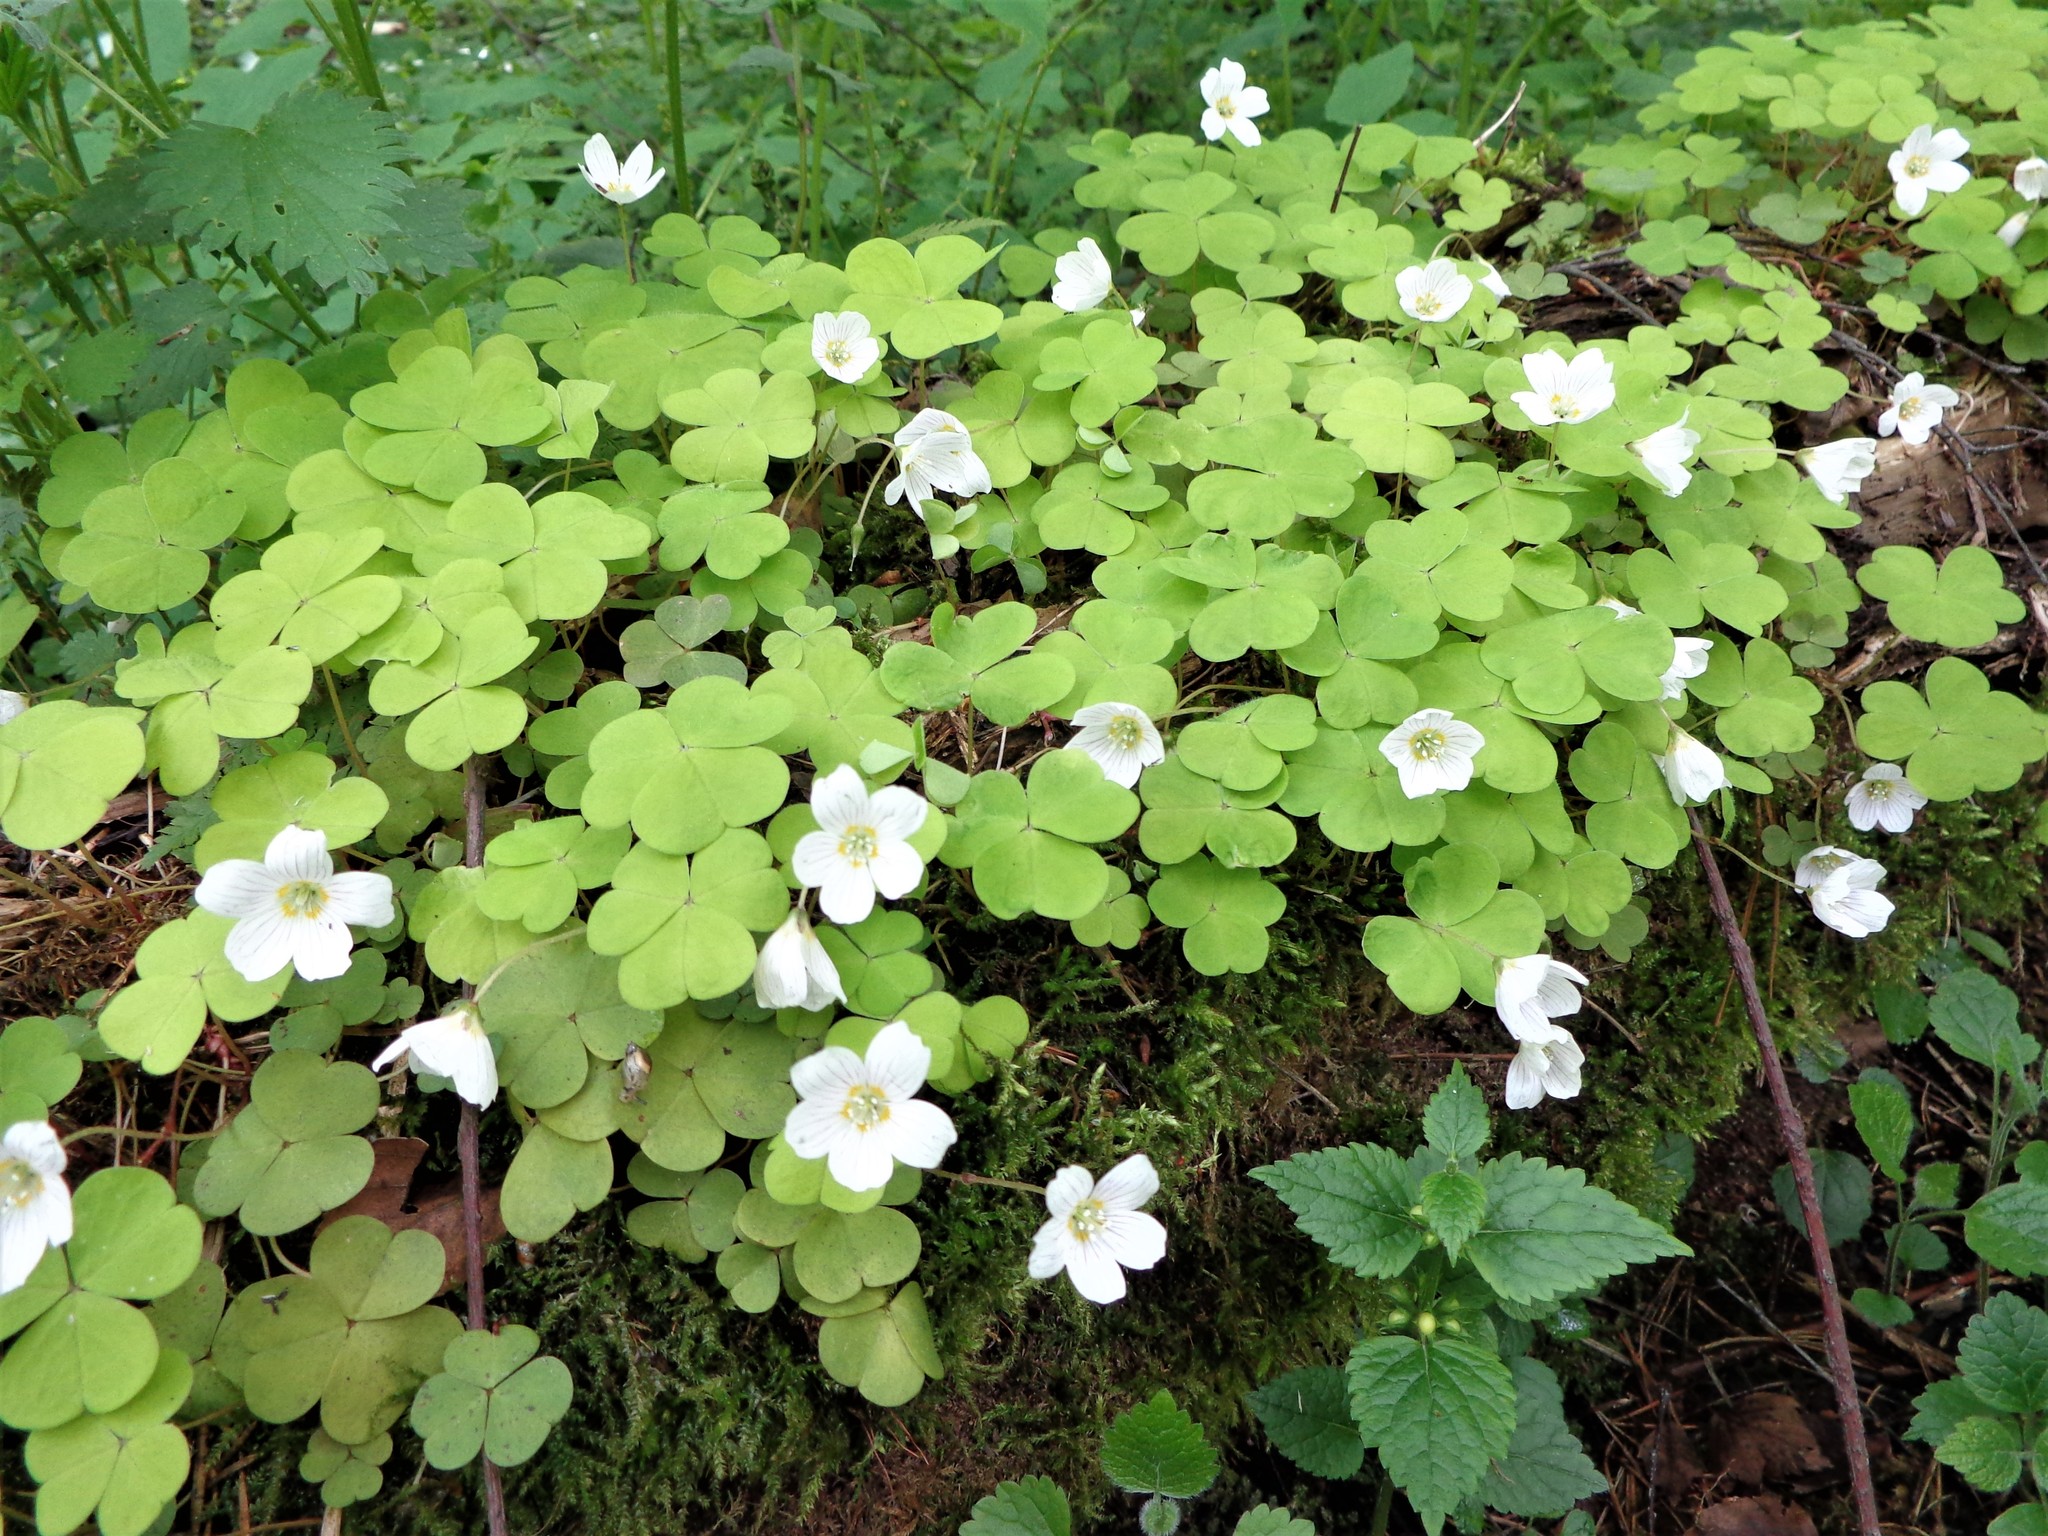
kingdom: Plantae
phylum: Tracheophyta
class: Magnoliopsida
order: Oxalidales
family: Oxalidaceae
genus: Oxalis
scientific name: Oxalis acetosella
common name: Wood-sorrel
